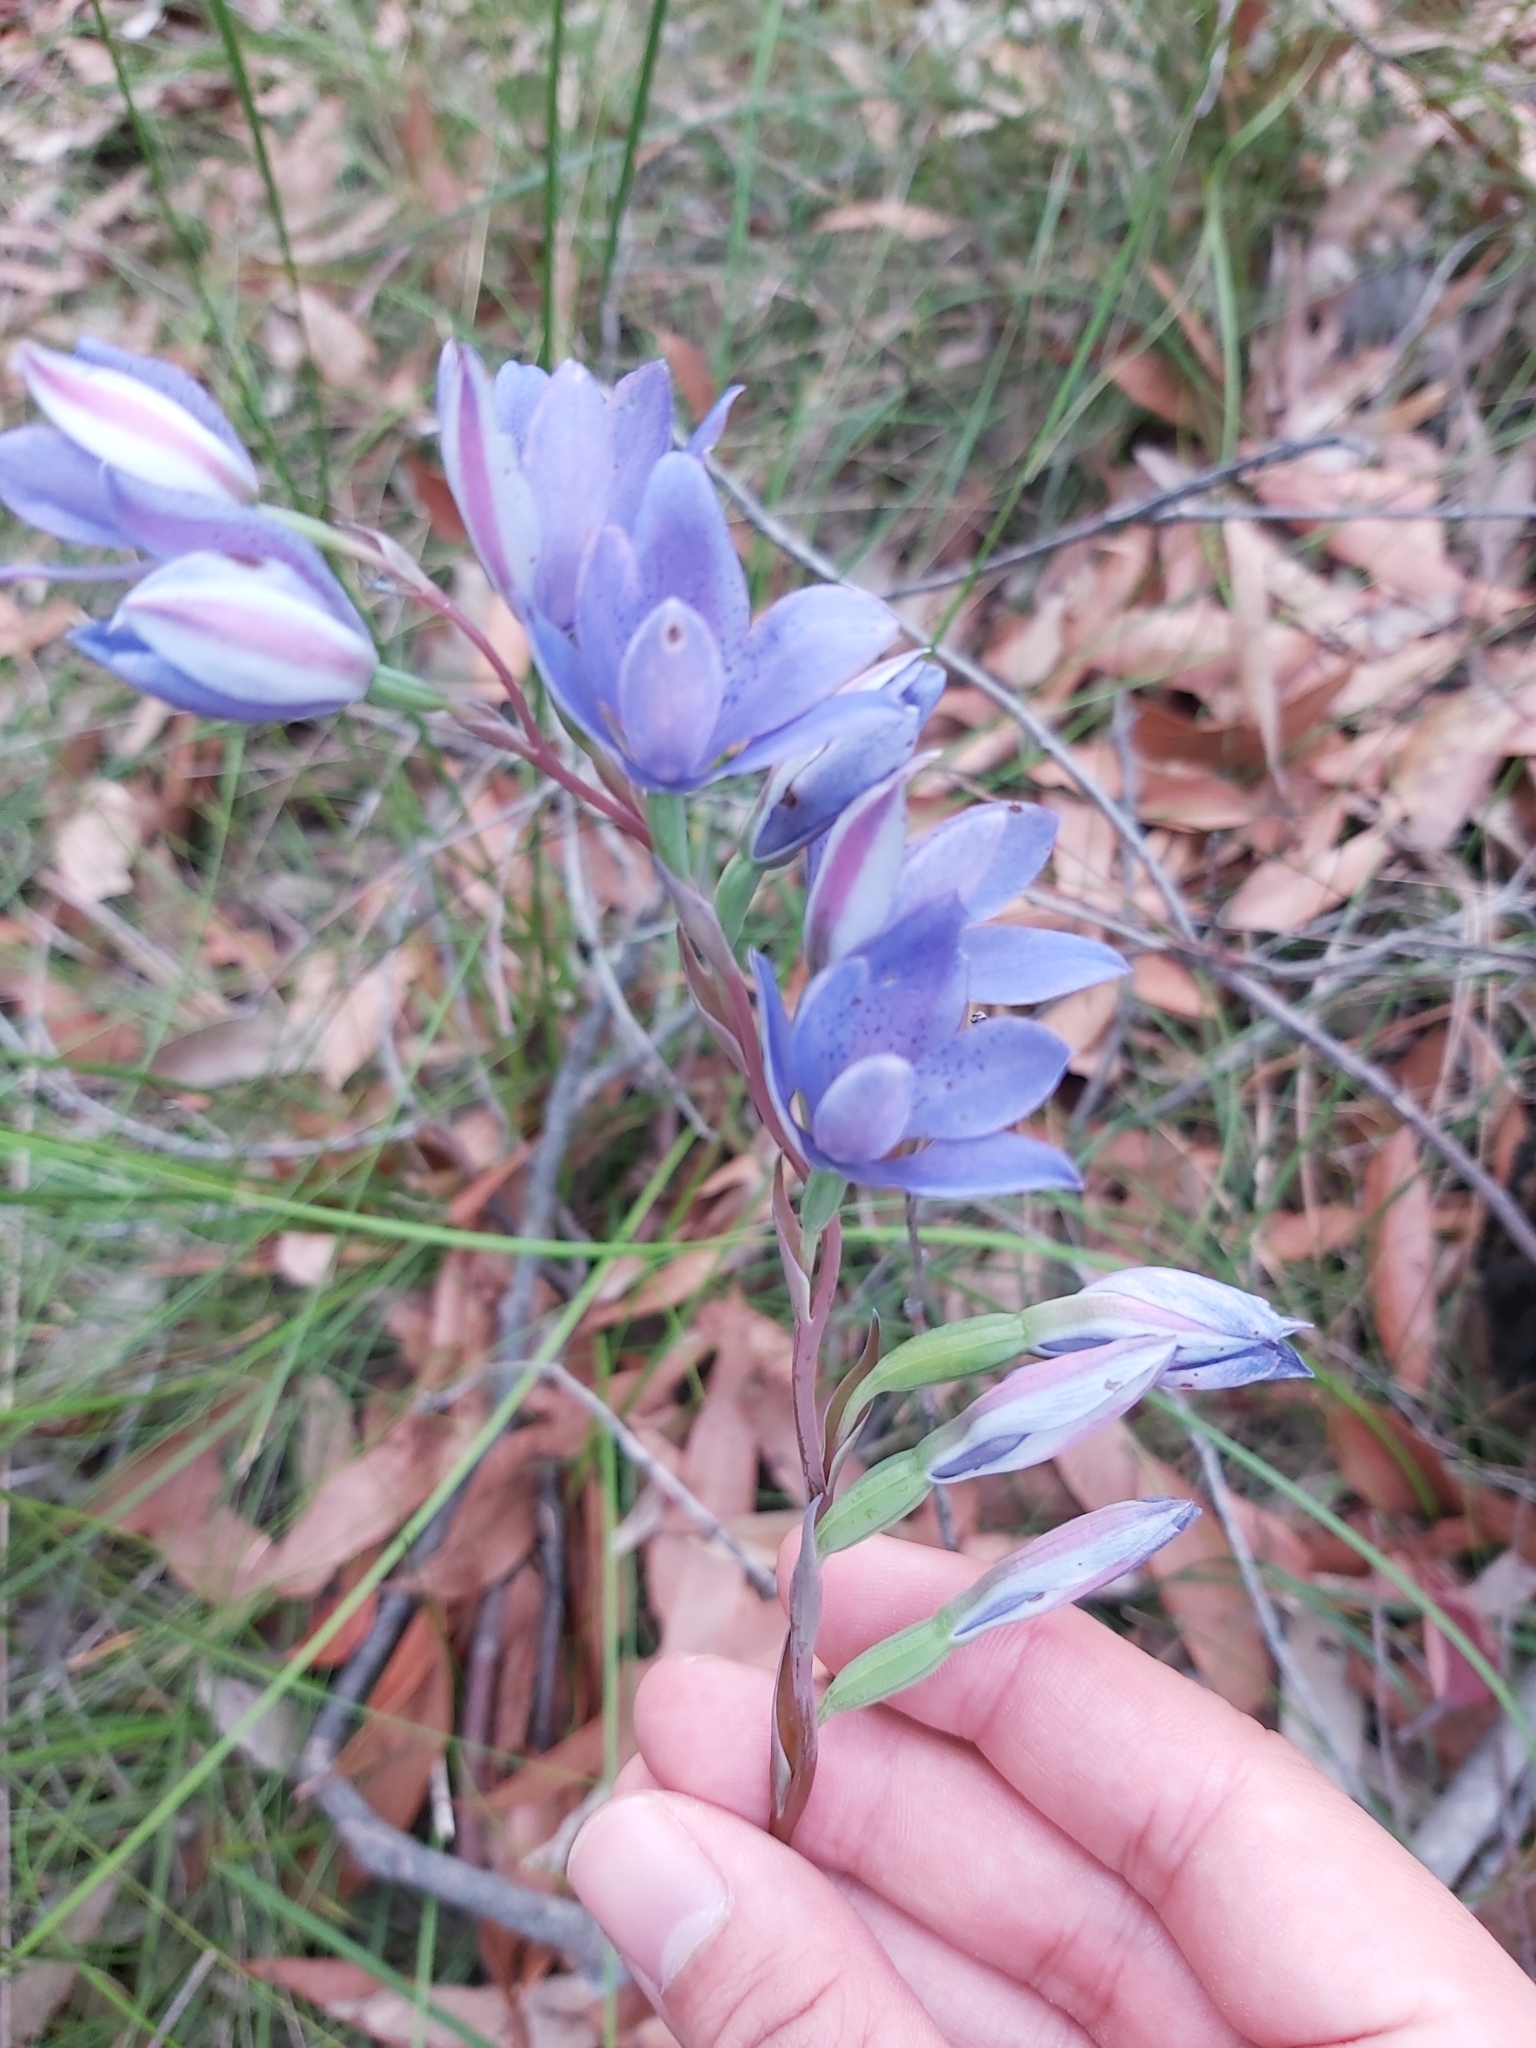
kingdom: Plantae
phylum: Tracheophyta
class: Liliopsida
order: Asparagales
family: Orchidaceae
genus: Thelymitra
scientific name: Thelymitra ixioides
